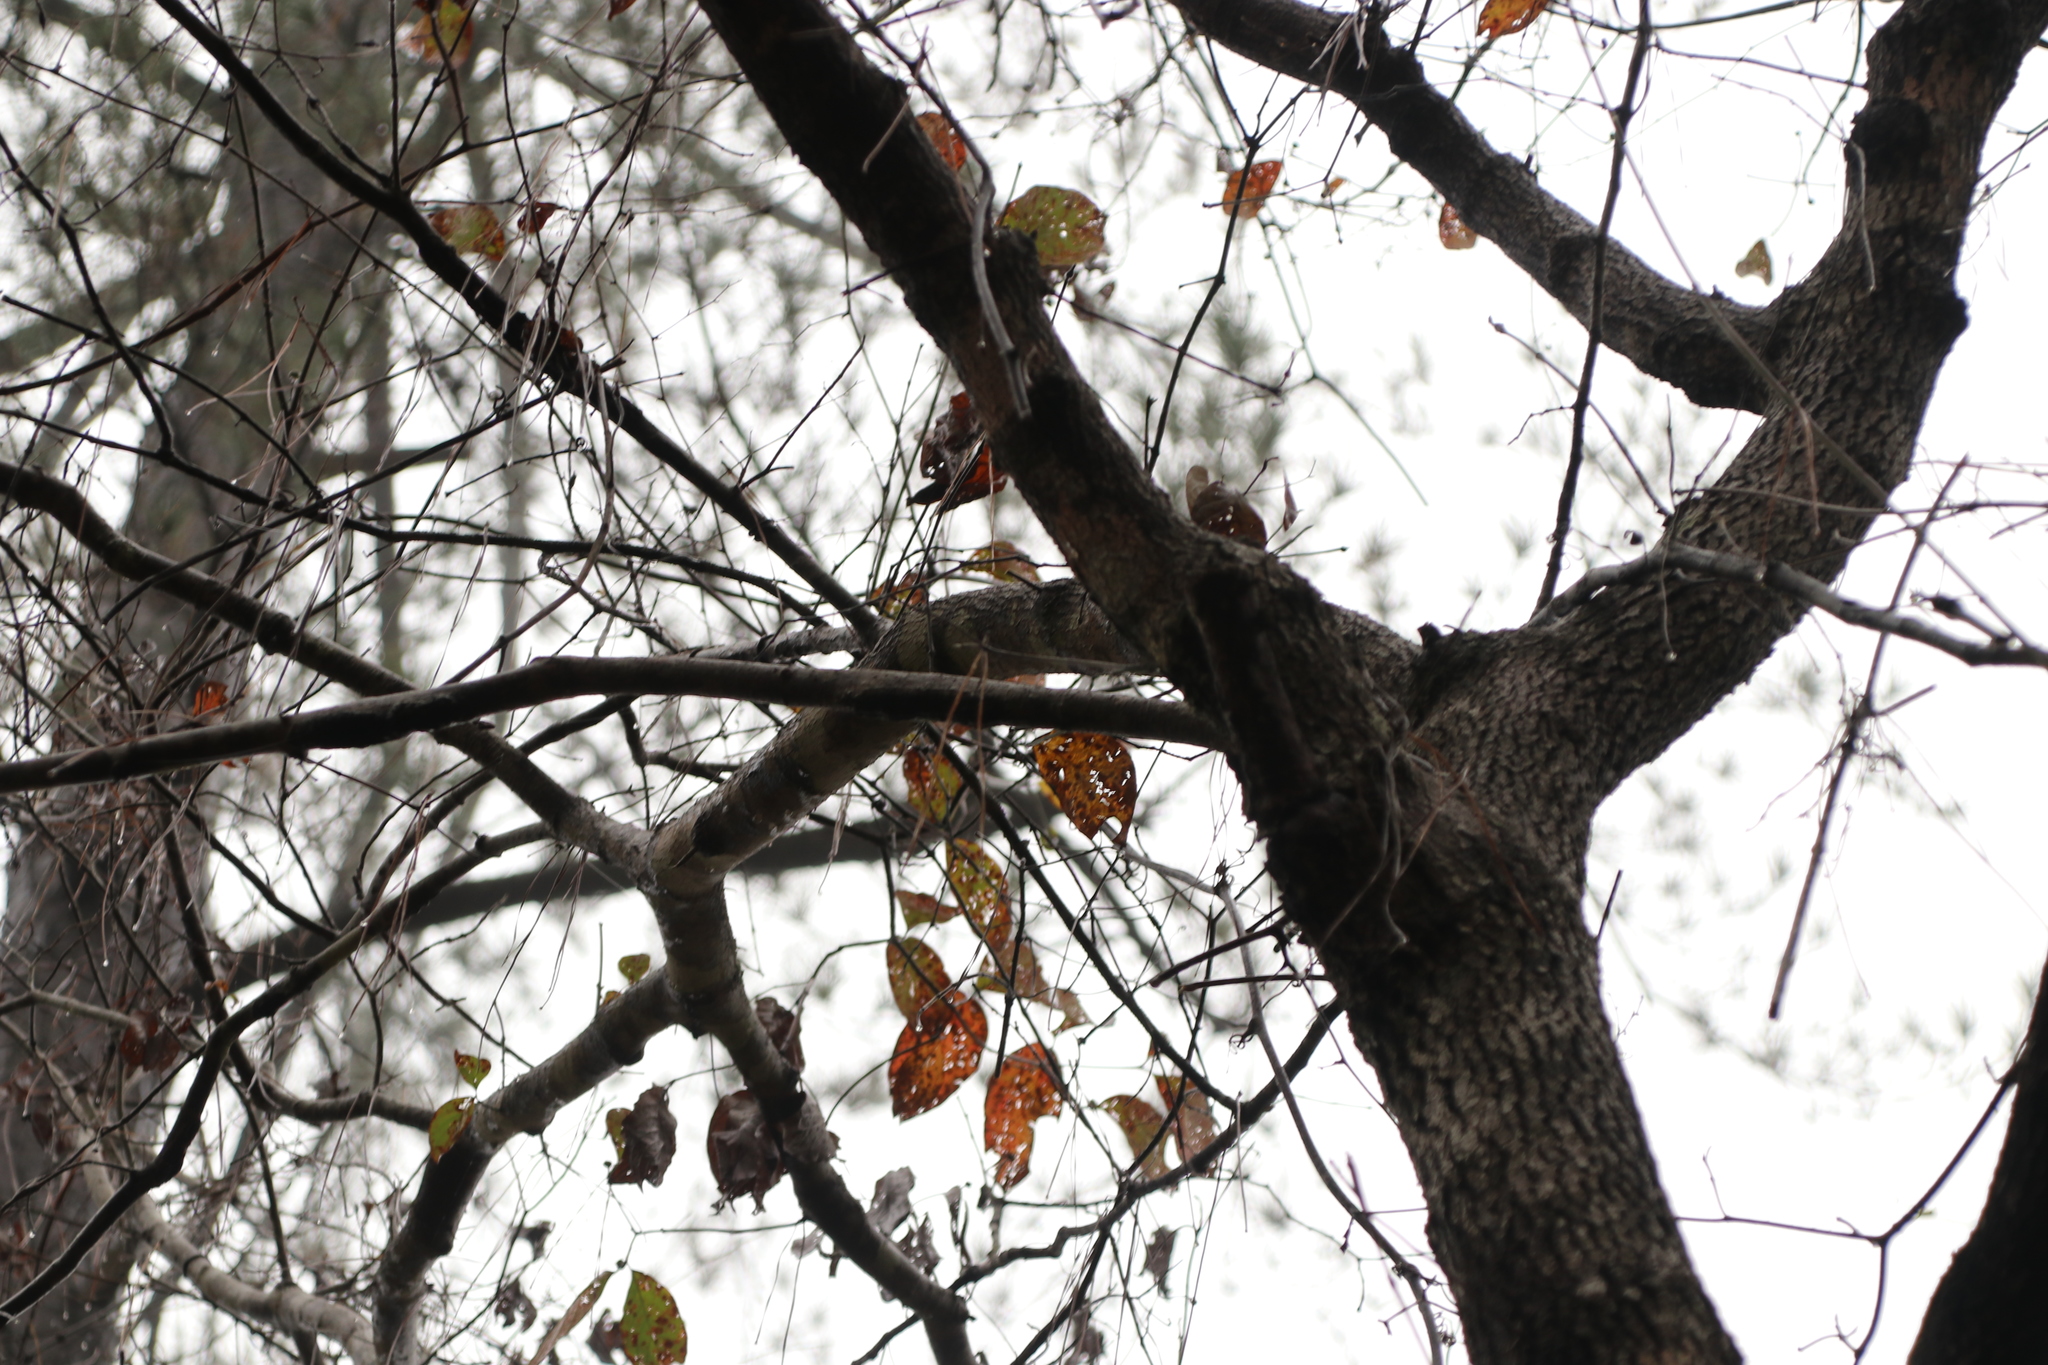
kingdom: Plantae
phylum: Tracheophyta
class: Magnoliopsida
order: Cornales
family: Cornaceae
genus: Cornus
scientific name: Cornus florida
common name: Flowering dogwood
